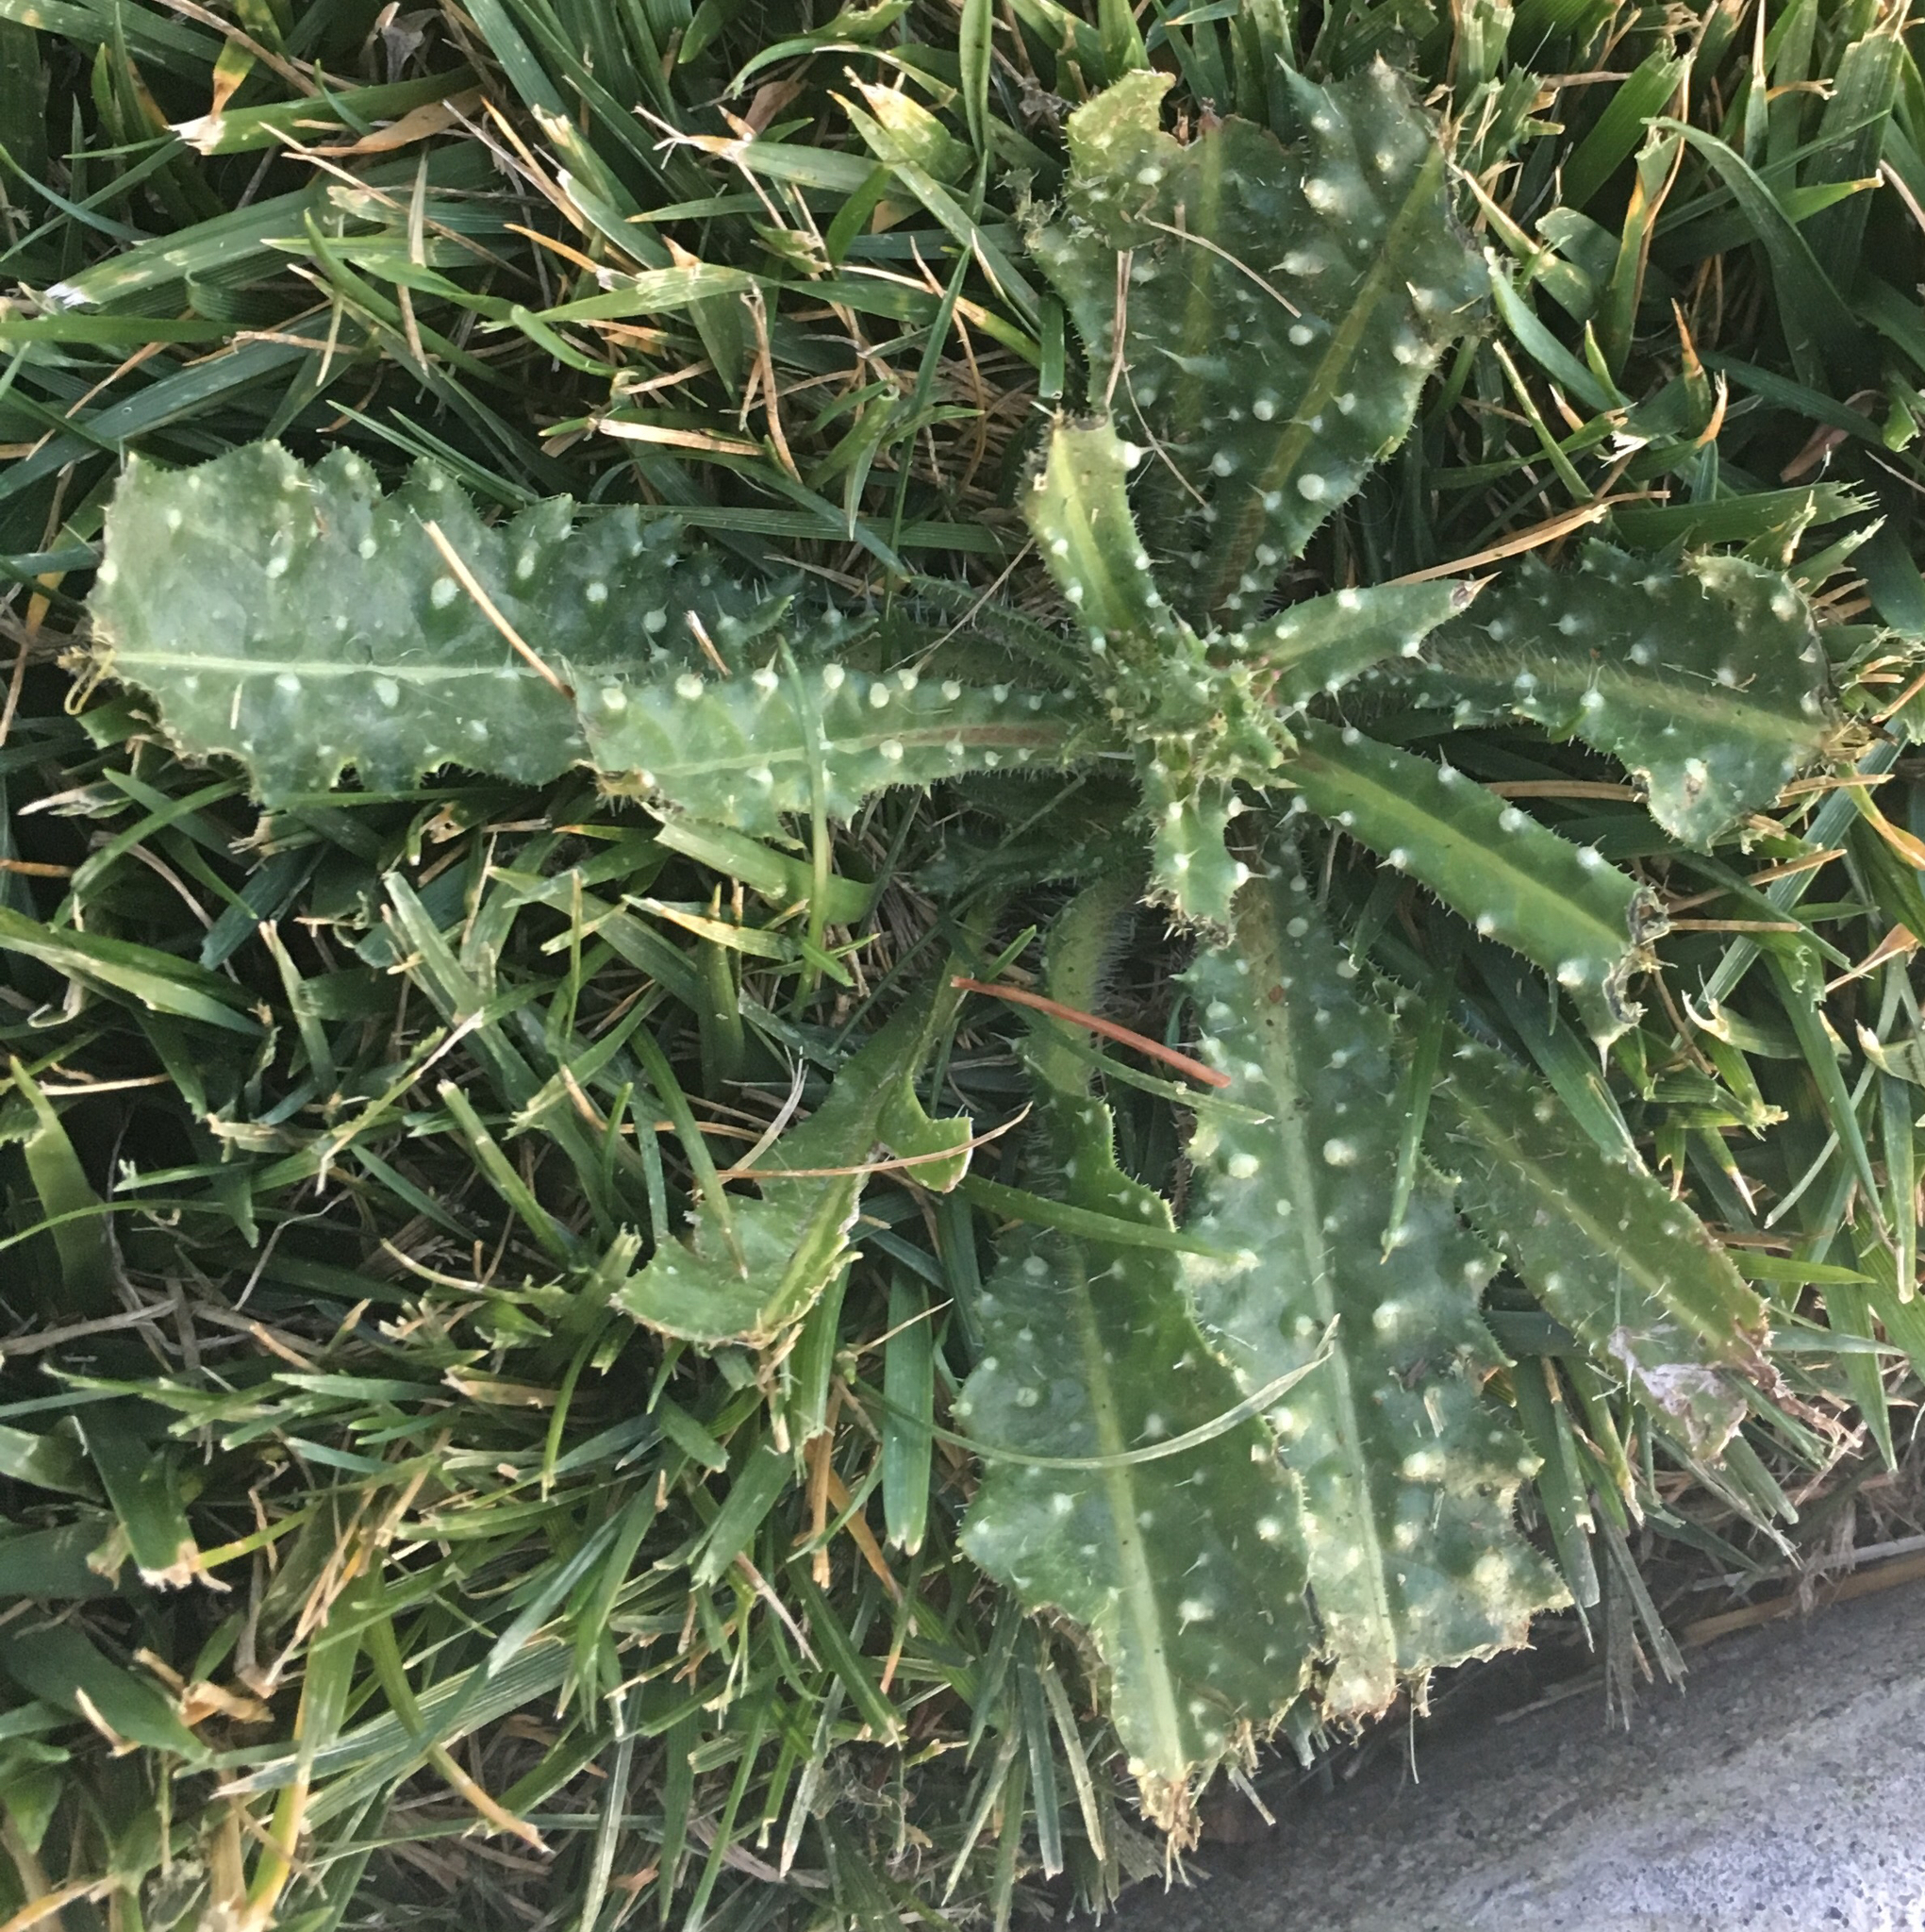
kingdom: Plantae
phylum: Tracheophyta
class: Magnoliopsida
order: Asterales
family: Asteraceae
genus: Helminthotheca
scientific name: Helminthotheca echioides
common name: Ox-tongue
